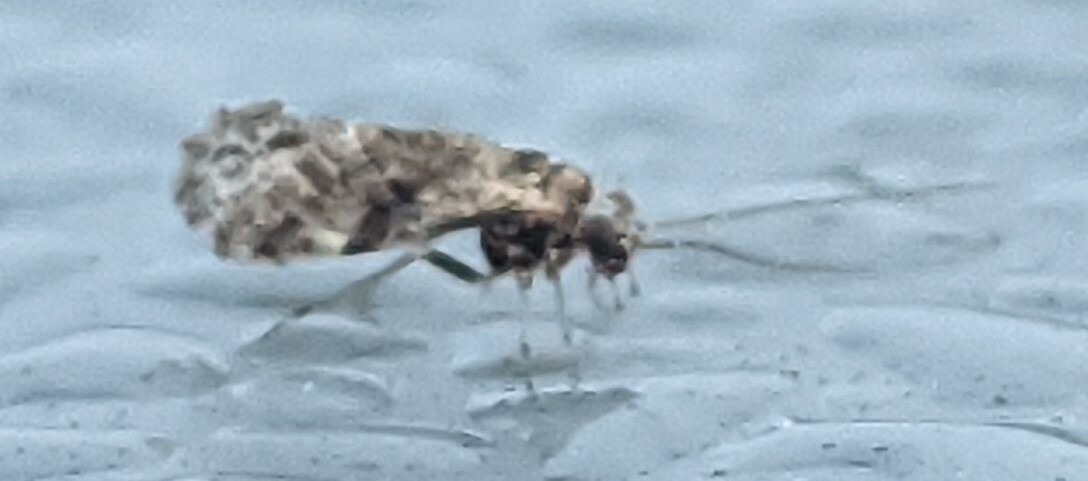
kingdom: Animalia
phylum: Arthropoda
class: Insecta
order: Psocodea
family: Psocidae
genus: Loensia
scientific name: Loensia variegata
